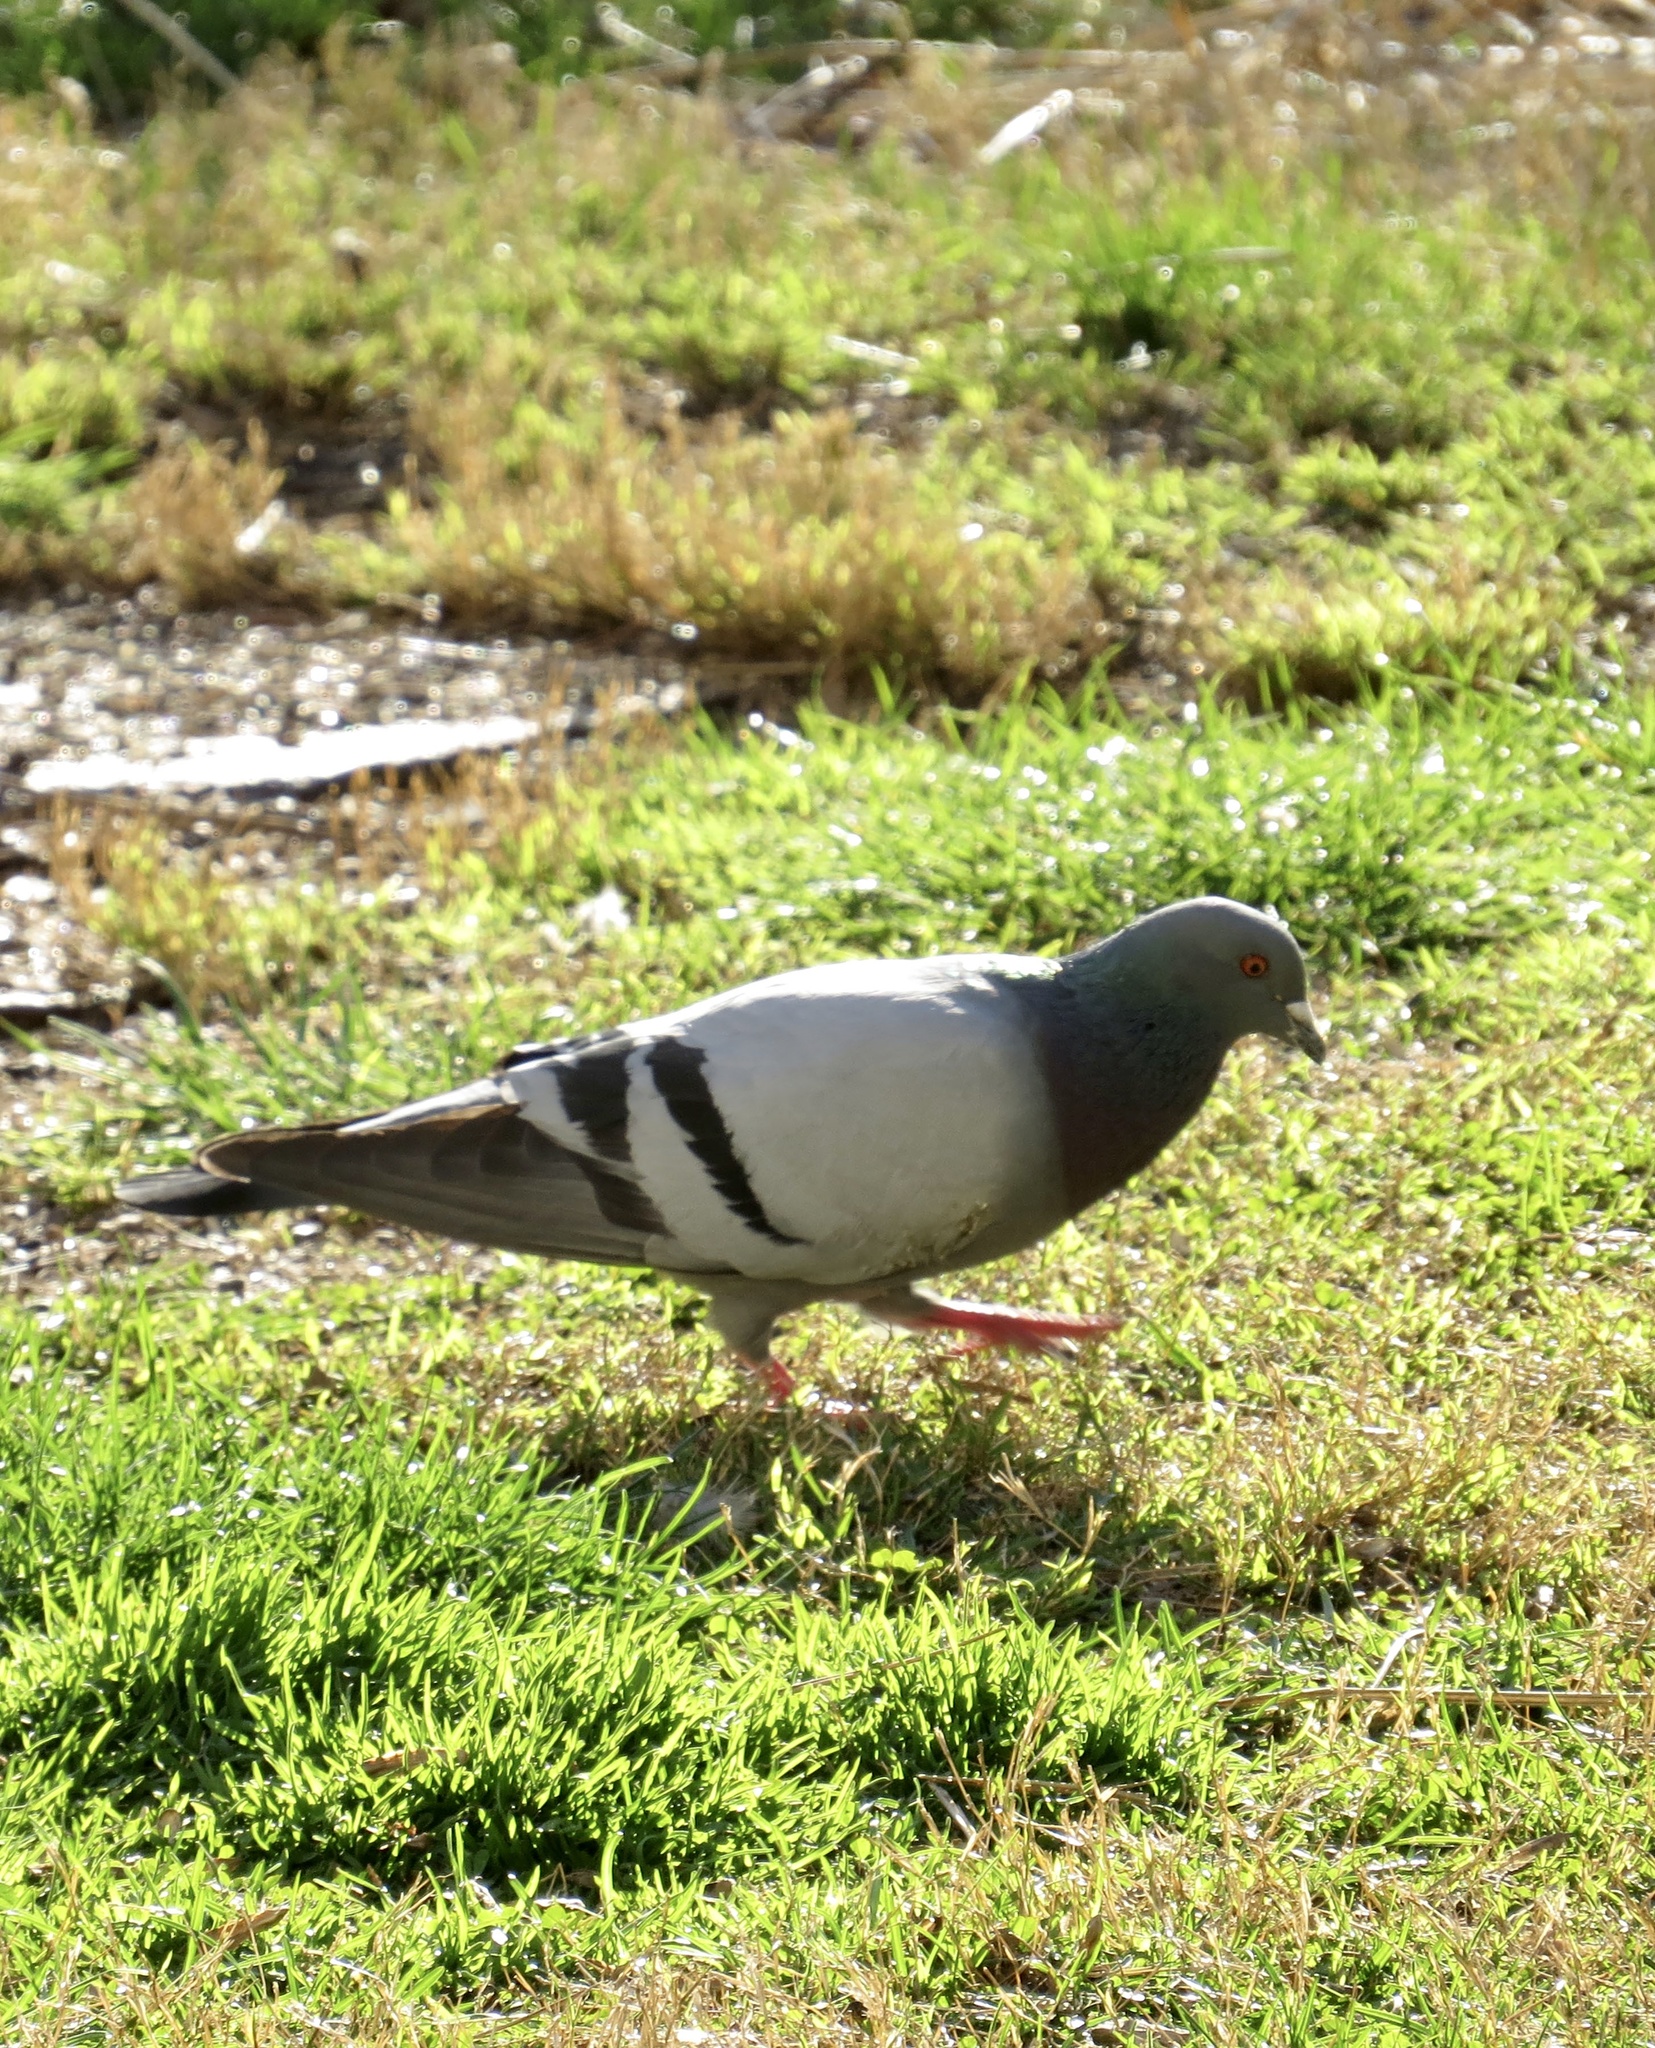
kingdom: Animalia
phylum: Chordata
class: Aves
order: Columbiformes
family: Columbidae
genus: Columba
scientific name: Columba livia
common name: Rock pigeon
